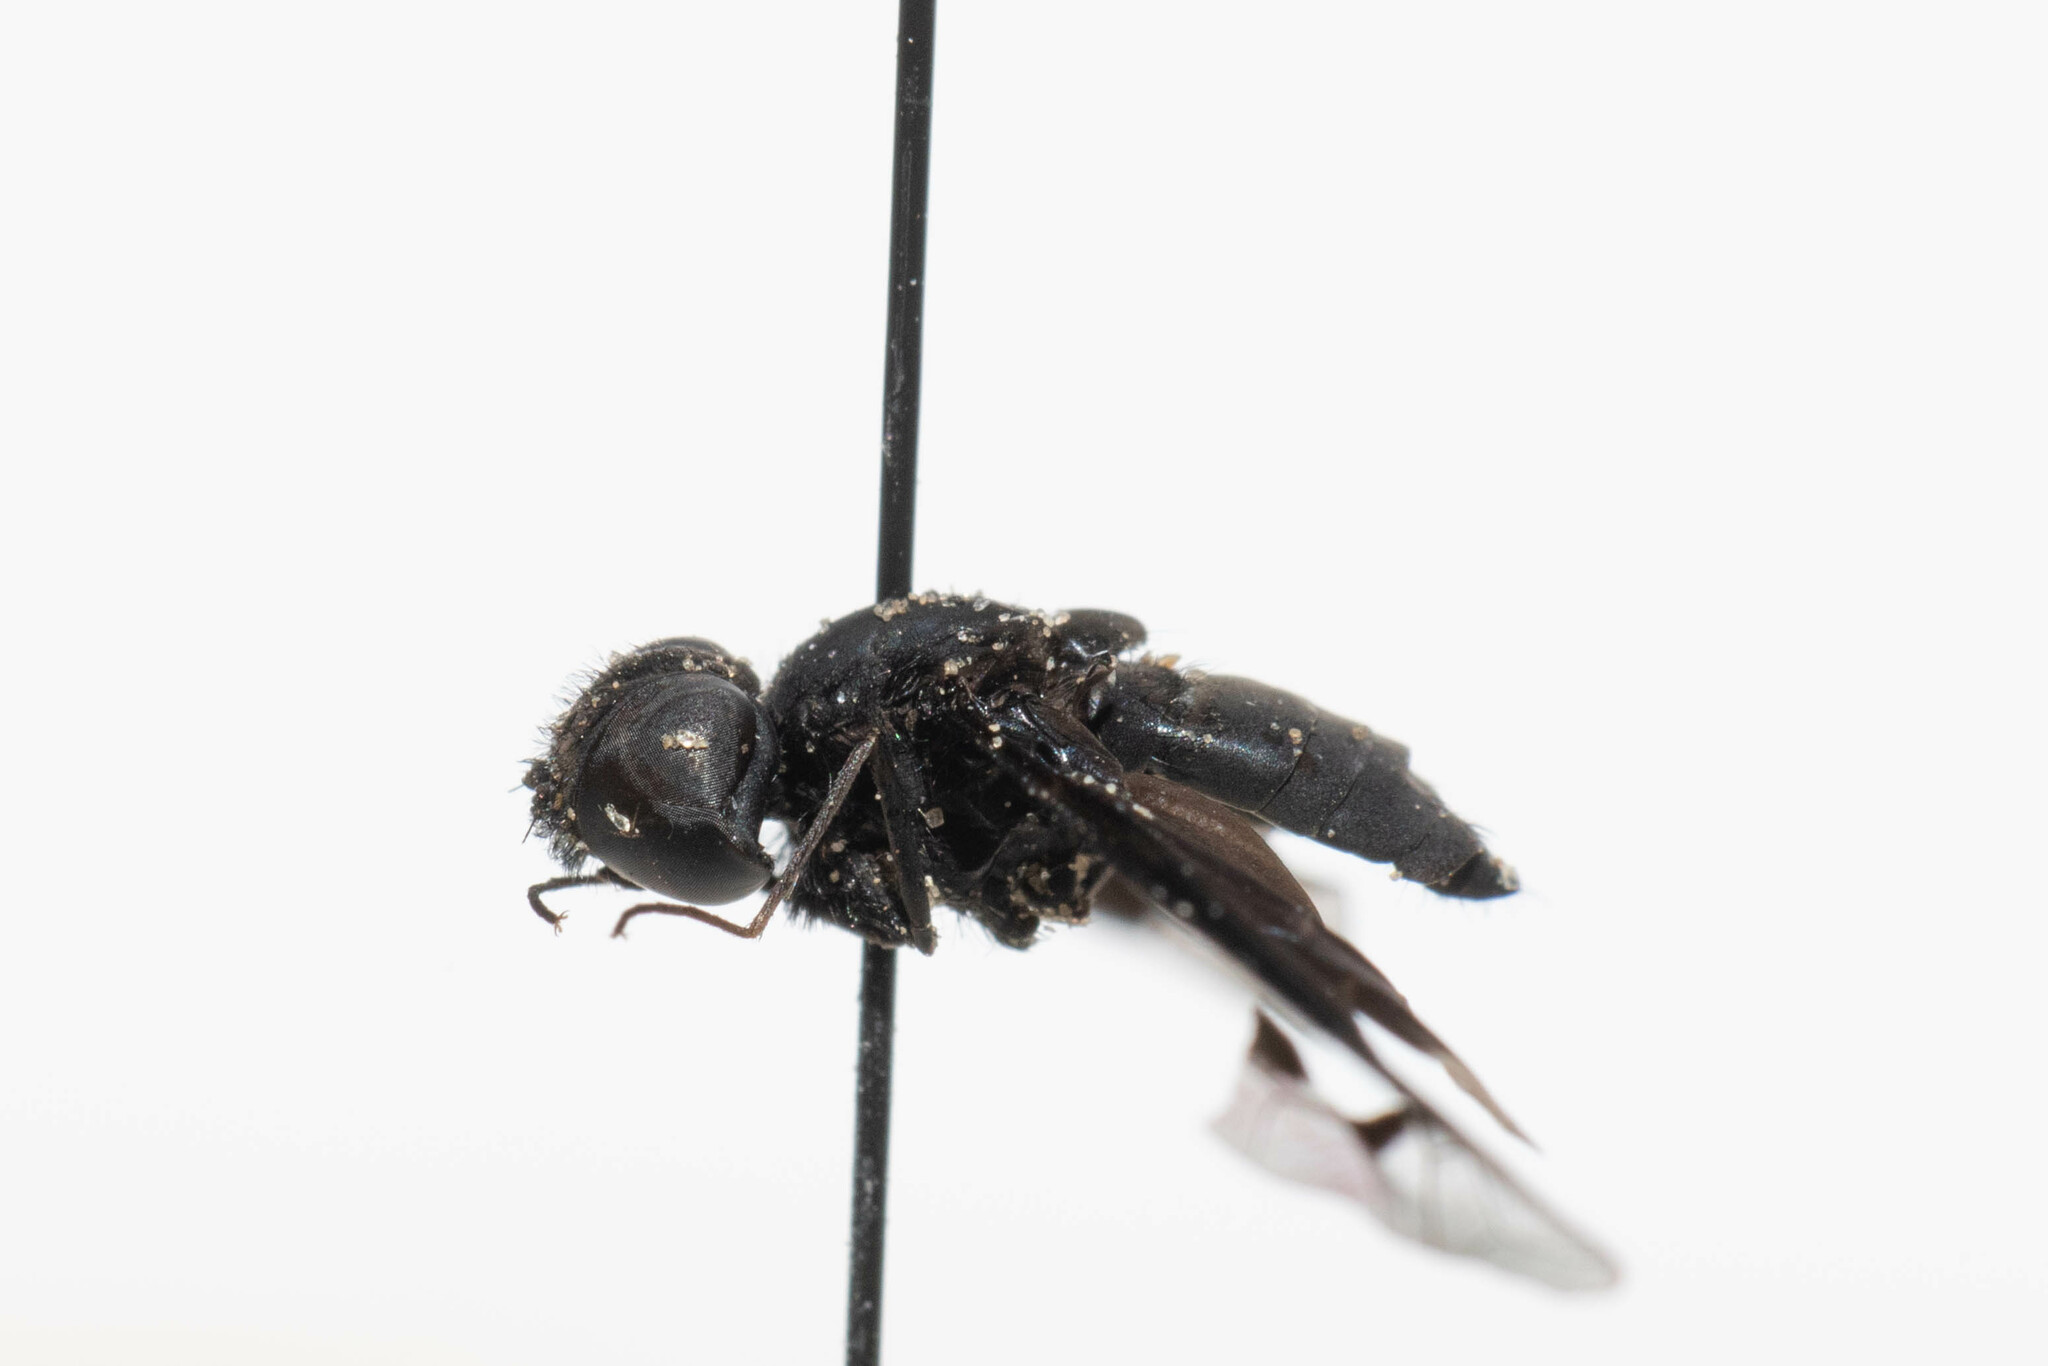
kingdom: Animalia
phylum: Arthropoda
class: Insecta
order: Diptera
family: Bombyliidae
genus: Anthrax
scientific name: Anthrax analis
